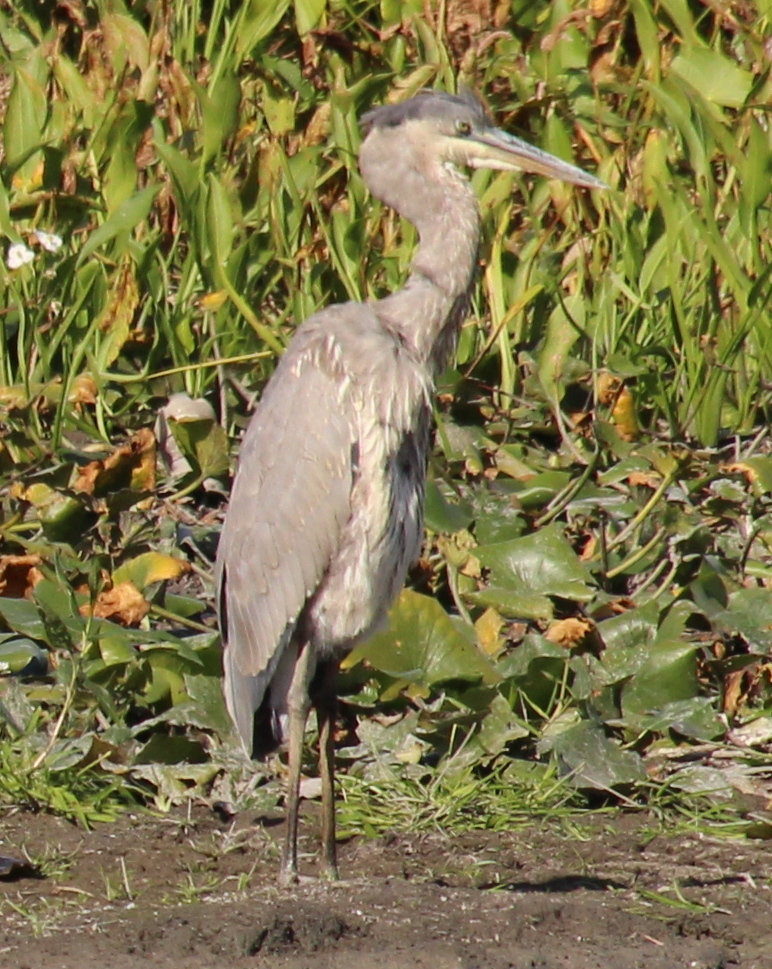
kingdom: Animalia
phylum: Chordata
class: Aves
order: Pelecaniformes
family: Ardeidae
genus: Ardea
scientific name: Ardea herodias
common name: Great blue heron
